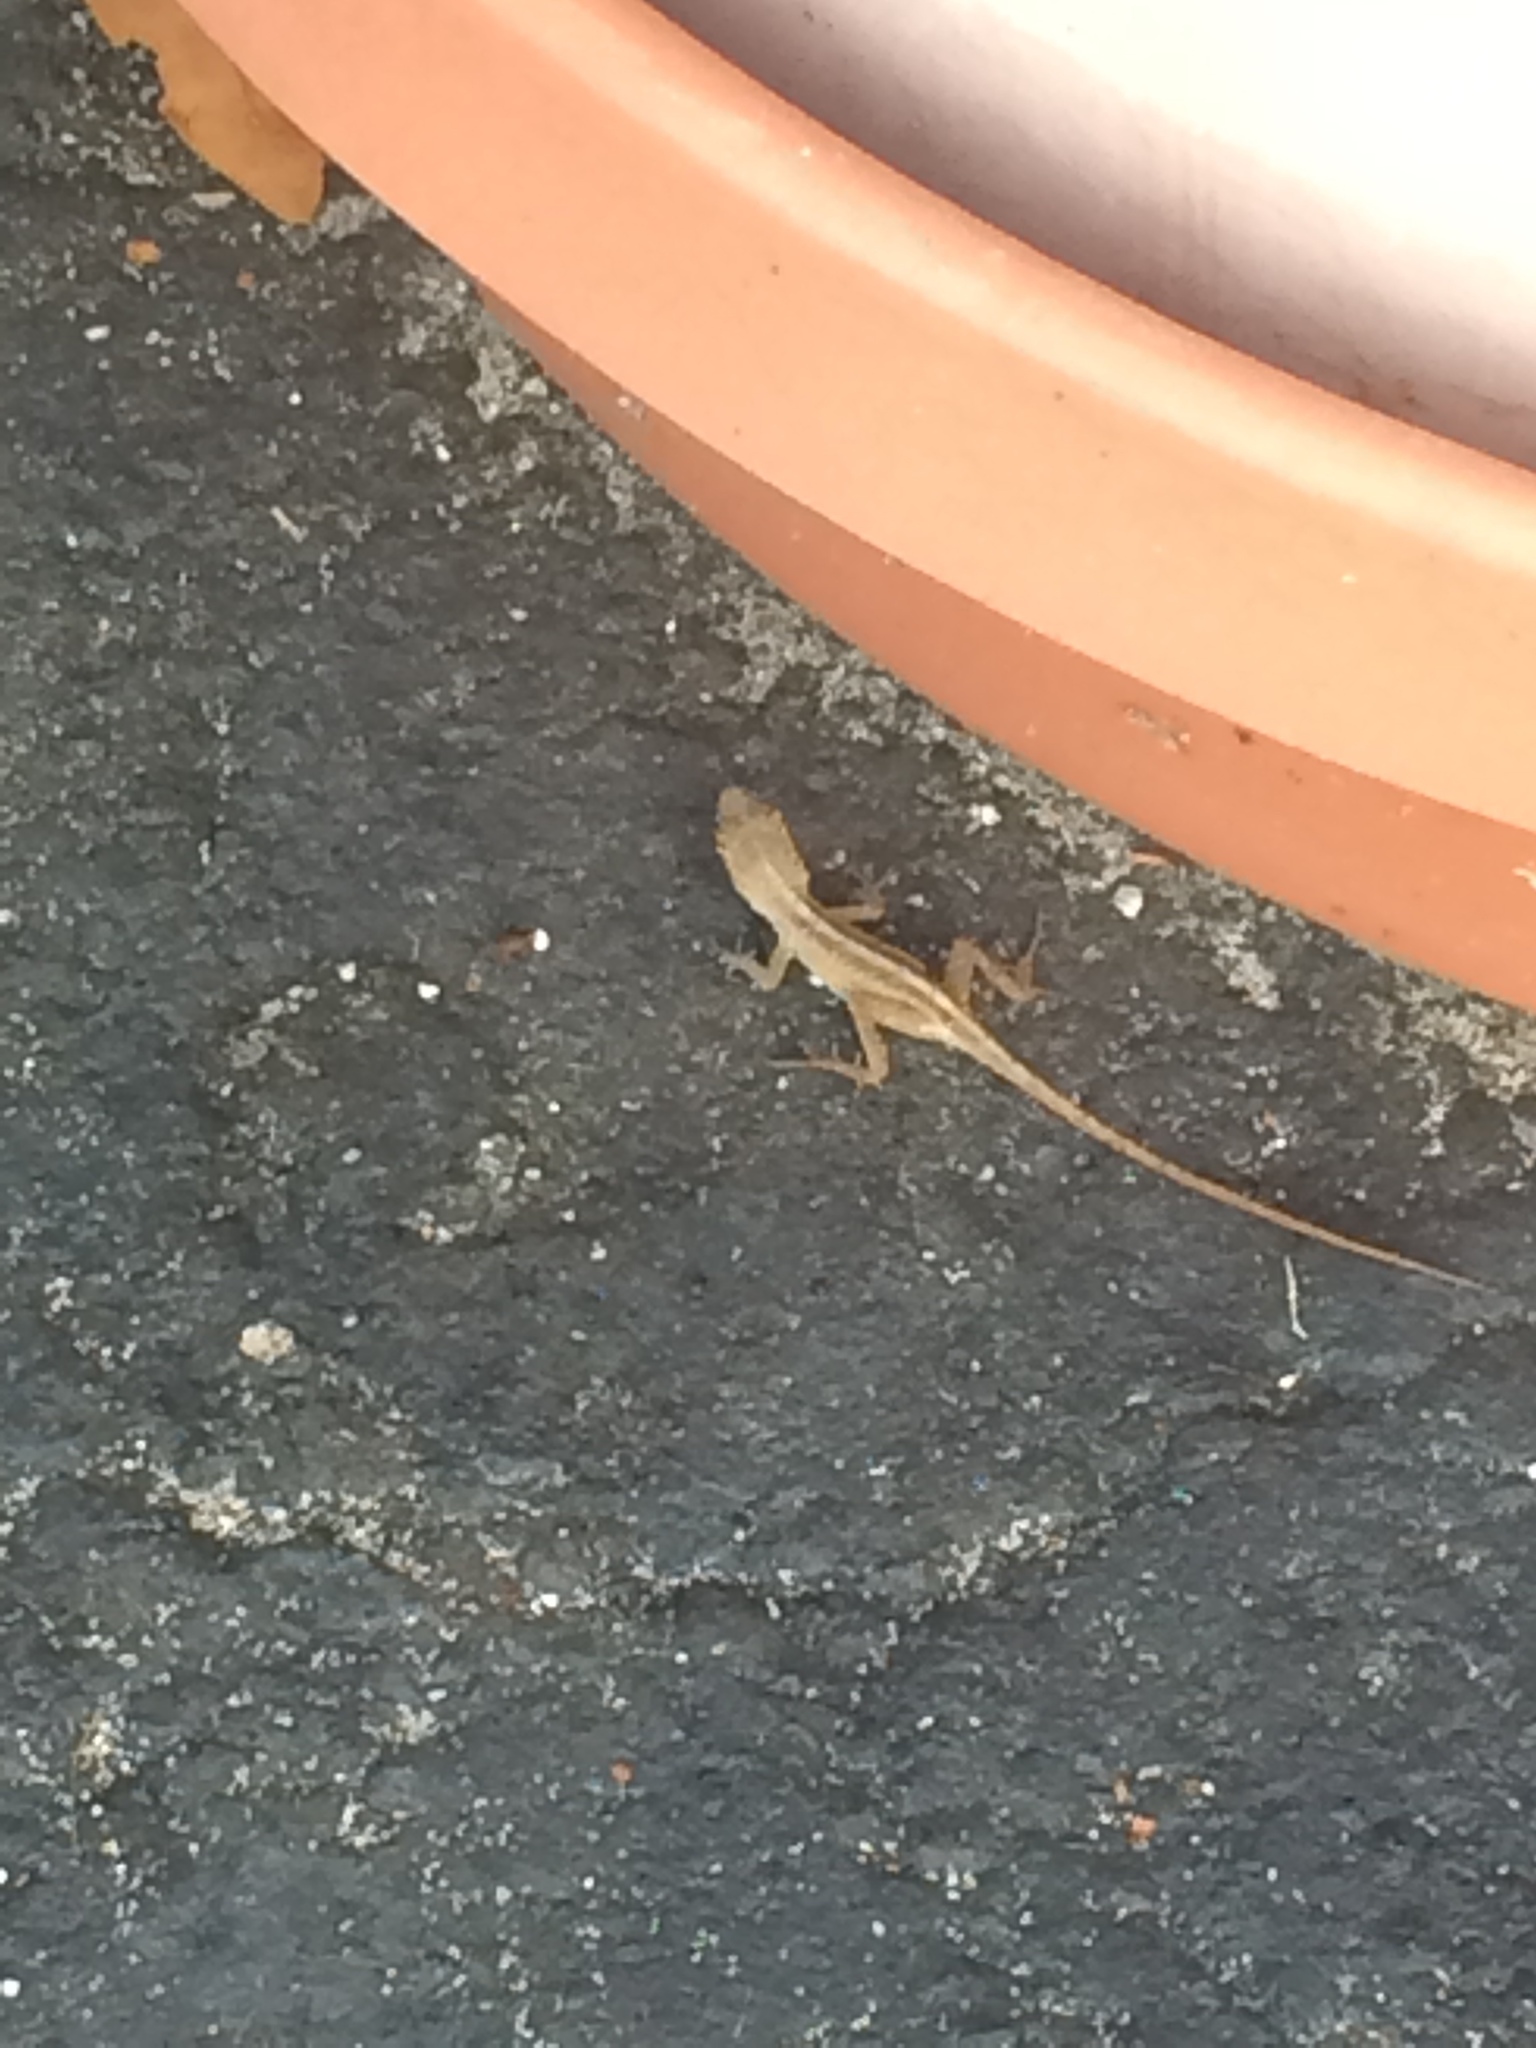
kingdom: Animalia
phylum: Chordata
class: Squamata
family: Dactyloidae
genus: Anolis
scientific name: Anolis sagrei
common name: Brown anole
